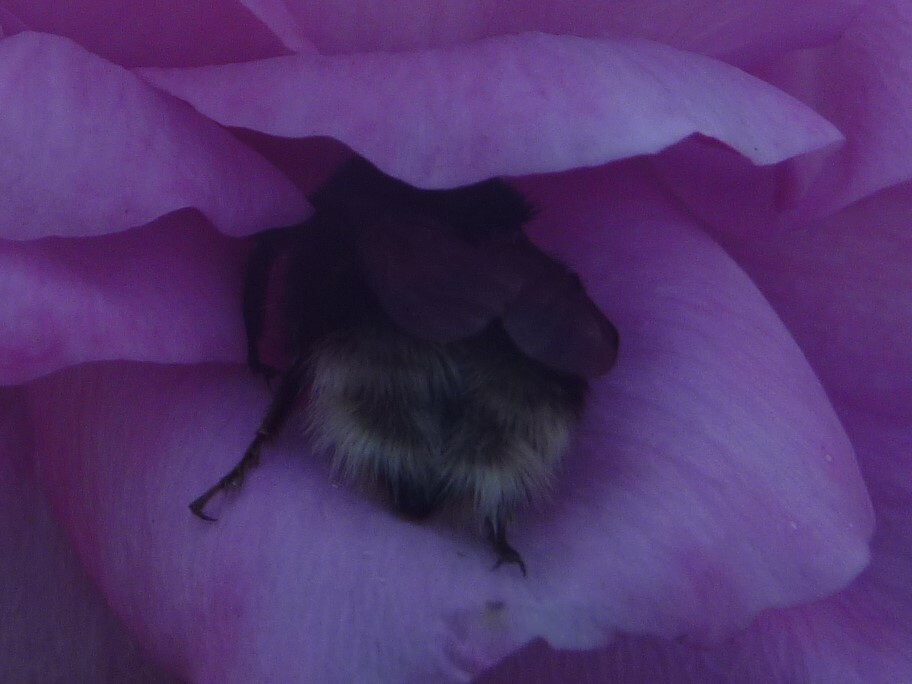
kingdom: Animalia
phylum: Arthropoda
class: Insecta
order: Hymenoptera
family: Apidae
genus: Bombus
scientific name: Bombus terrestris
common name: Buff-tailed bumblebee
